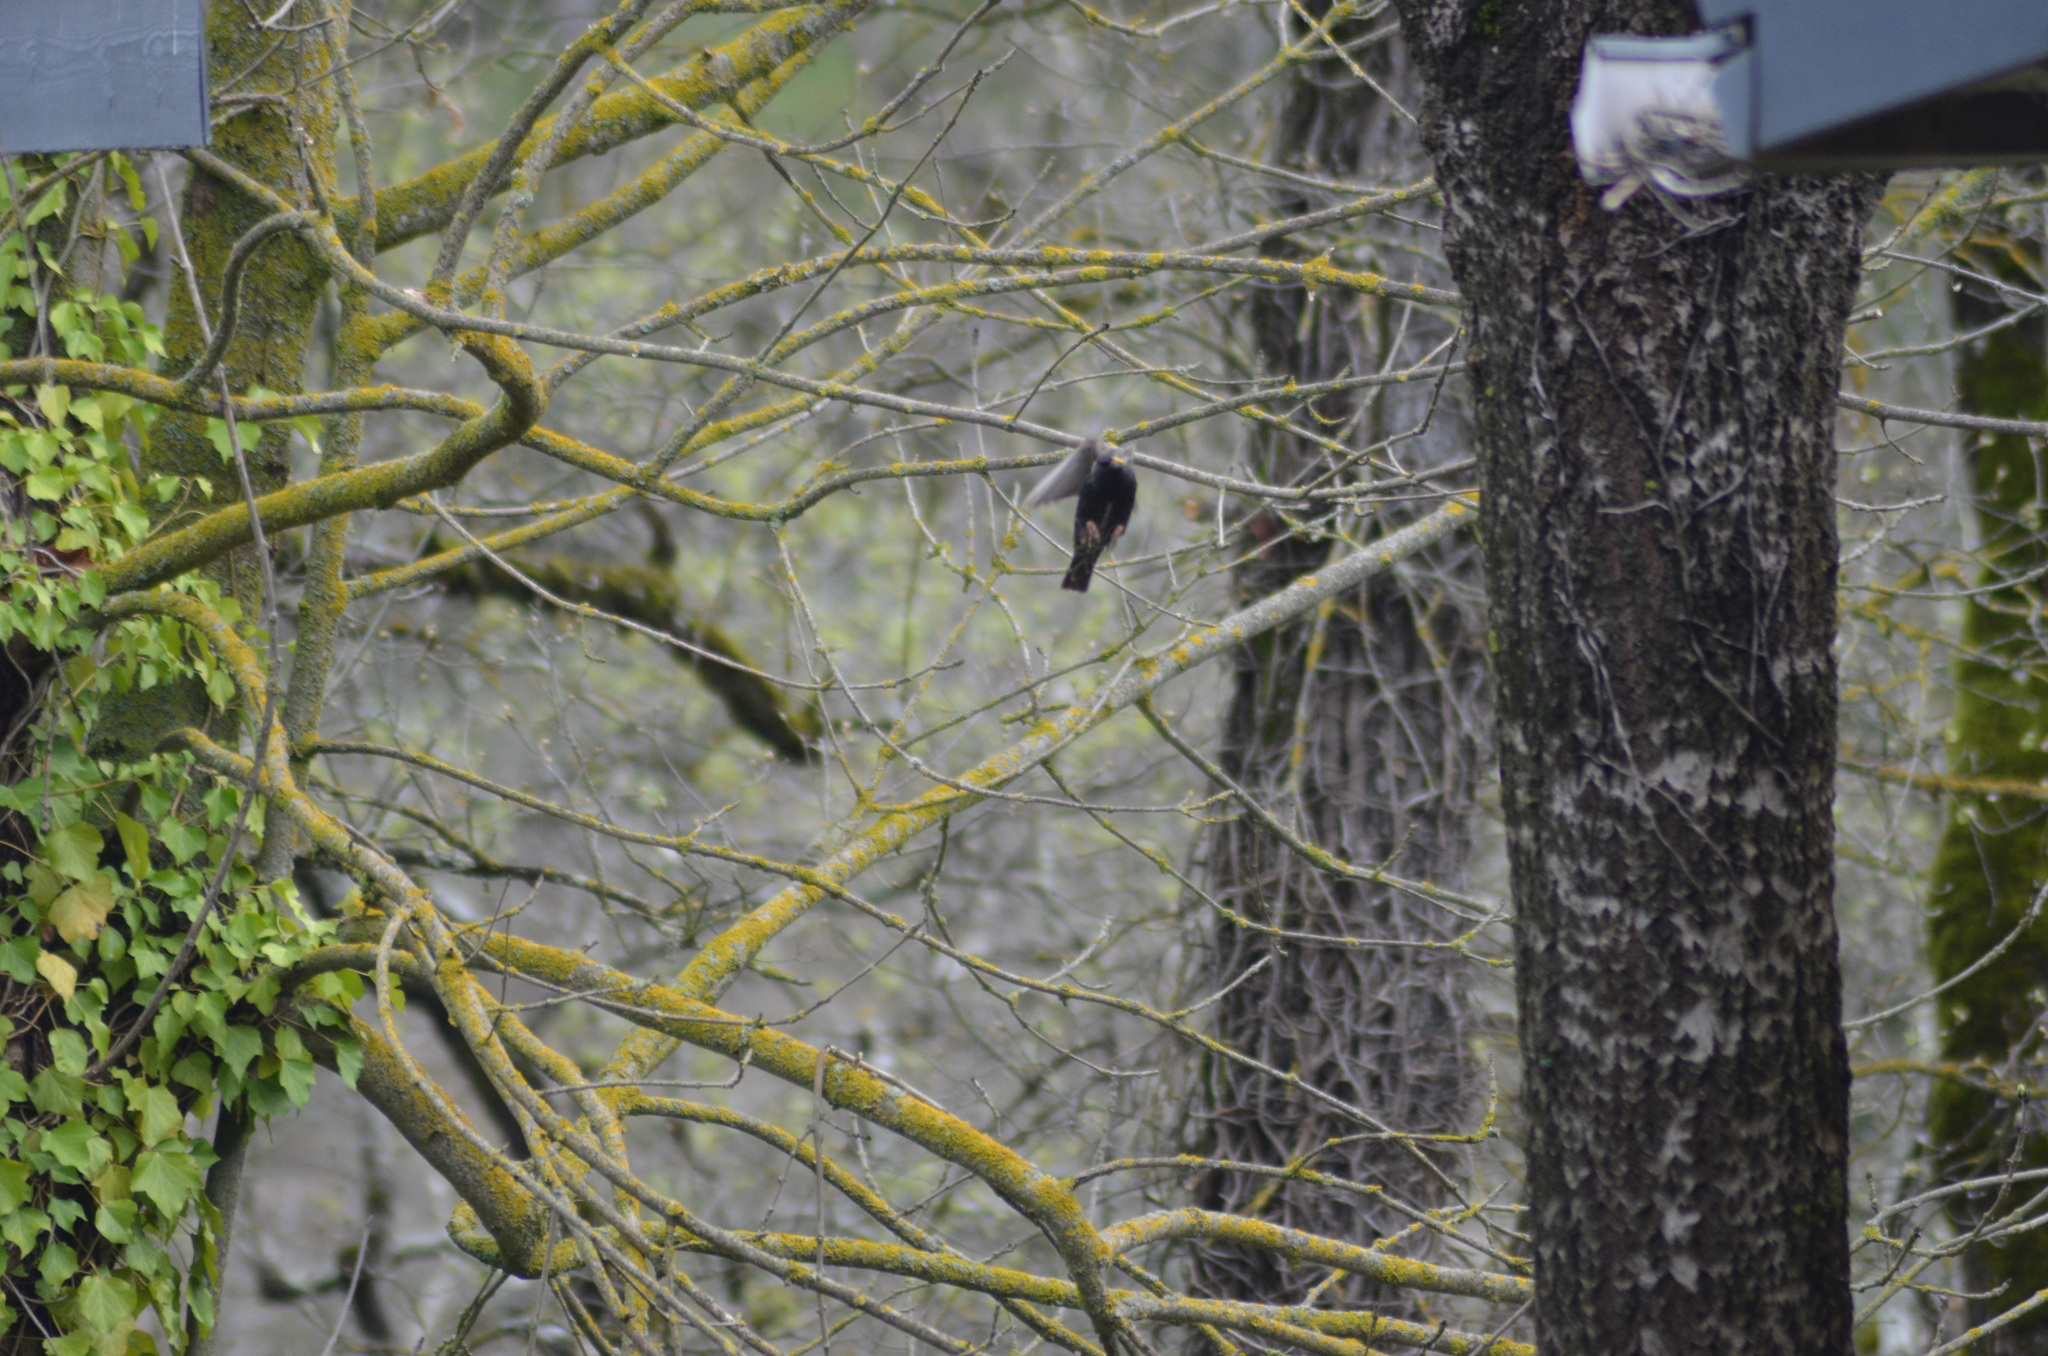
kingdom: Animalia
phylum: Chordata
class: Aves
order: Passeriformes
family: Sturnidae
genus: Sturnus
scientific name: Sturnus vulgaris
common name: Common starling
